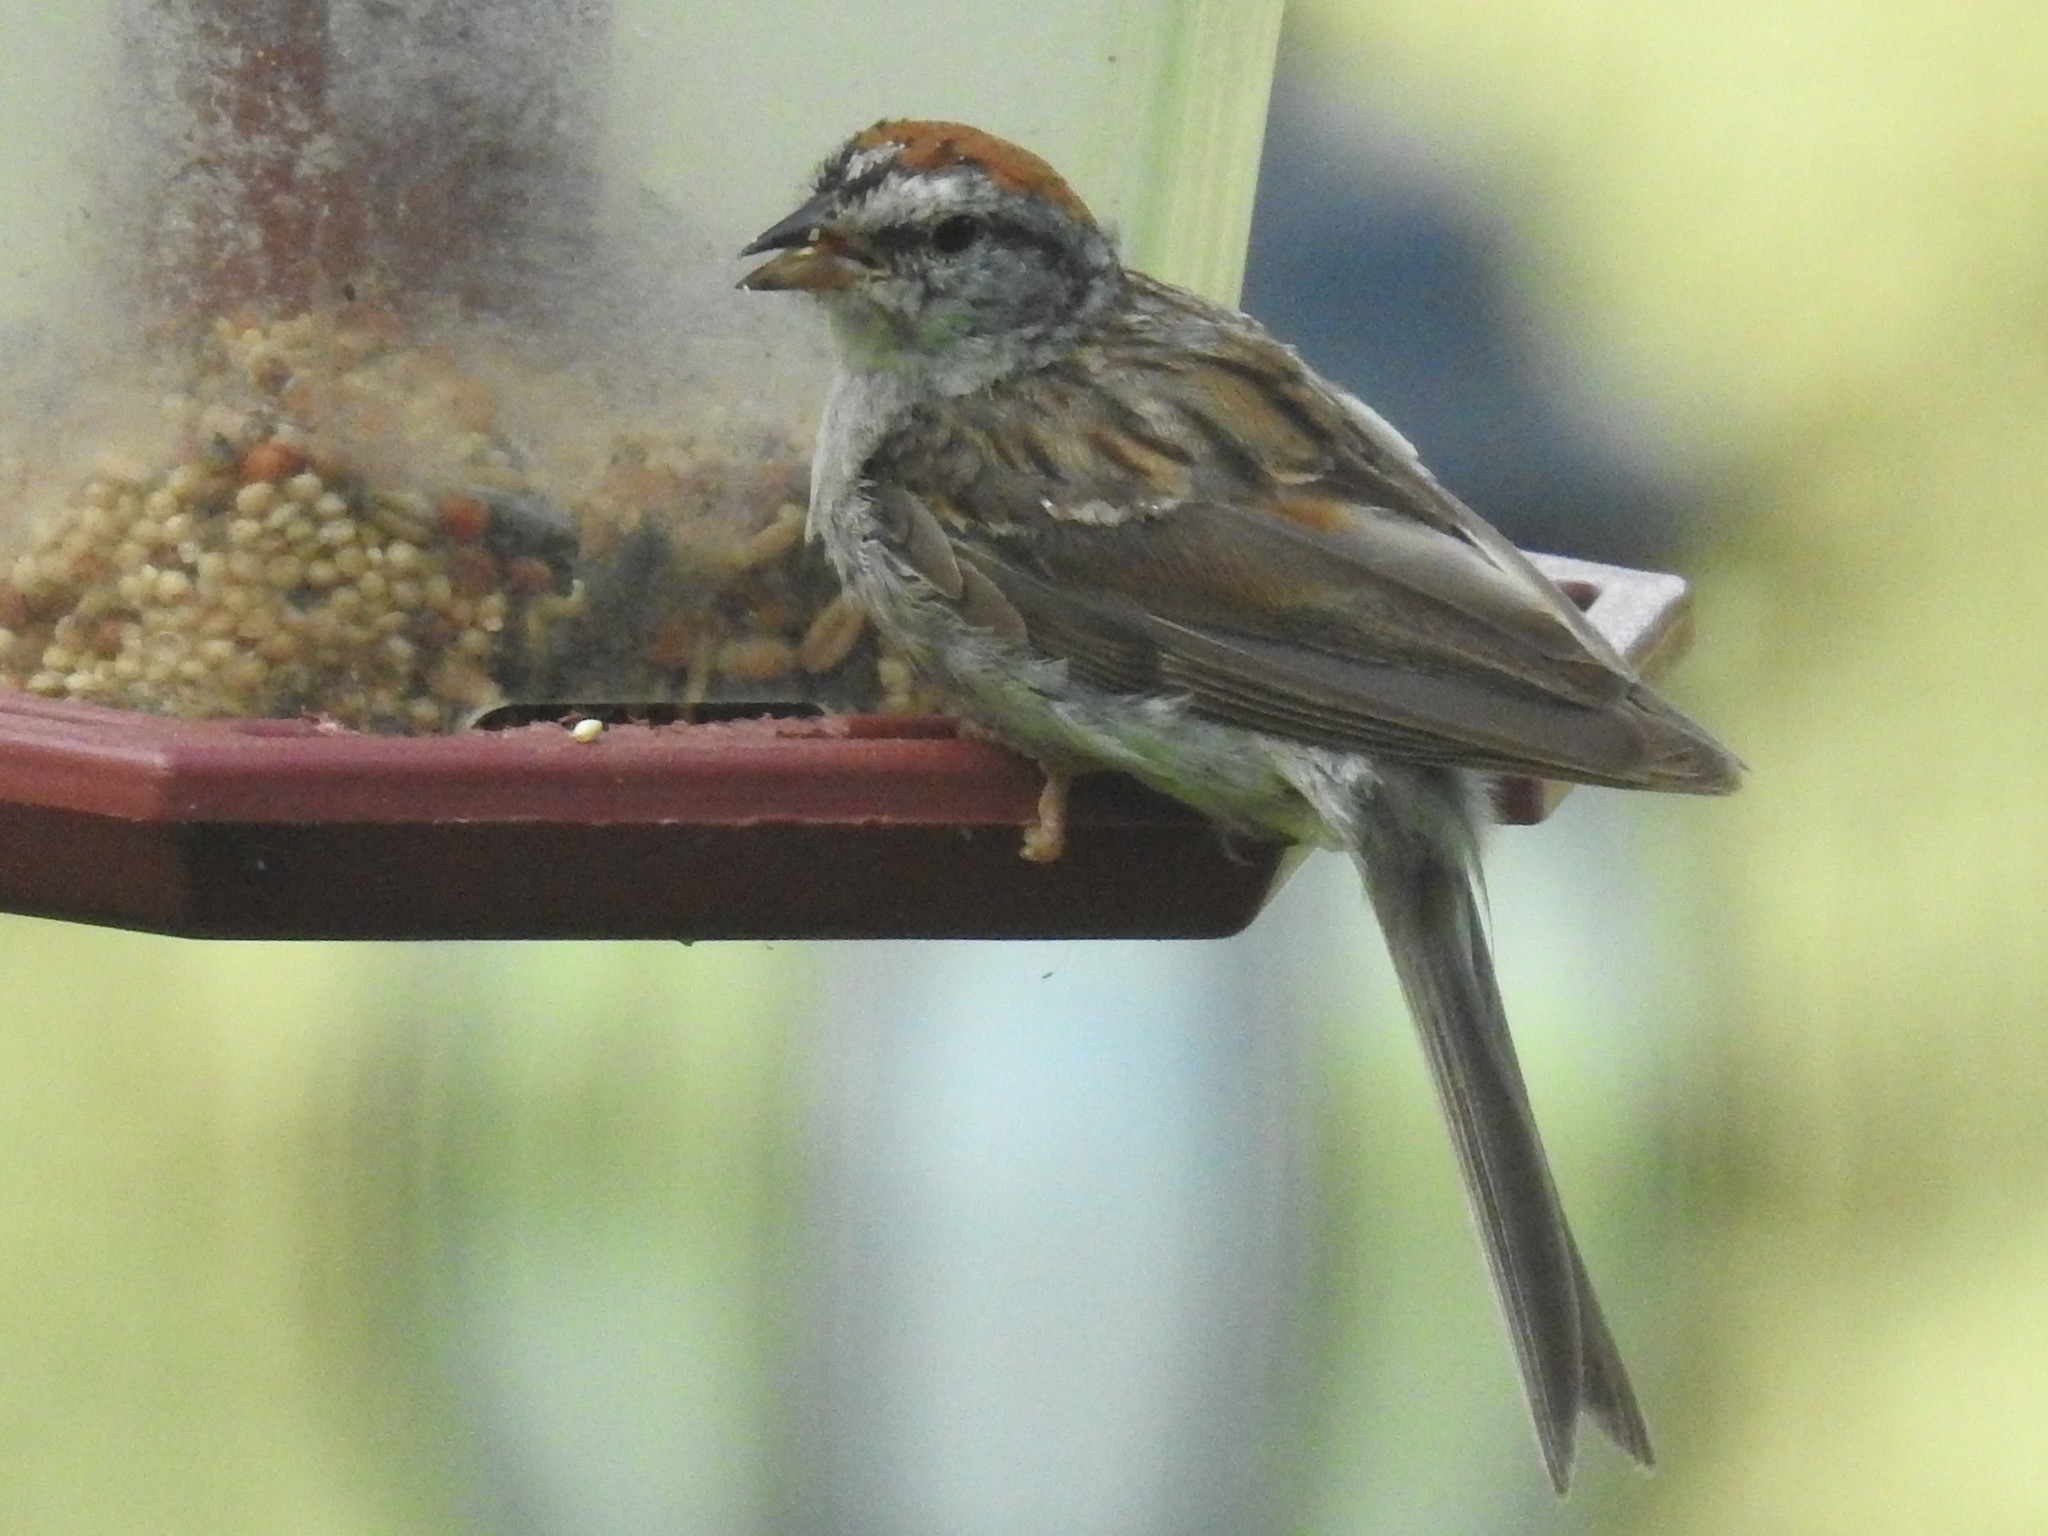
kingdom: Animalia
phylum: Chordata
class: Aves
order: Passeriformes
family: Passerellidae
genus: Spizella
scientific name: Spizella passerina
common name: Chipping sparrow
